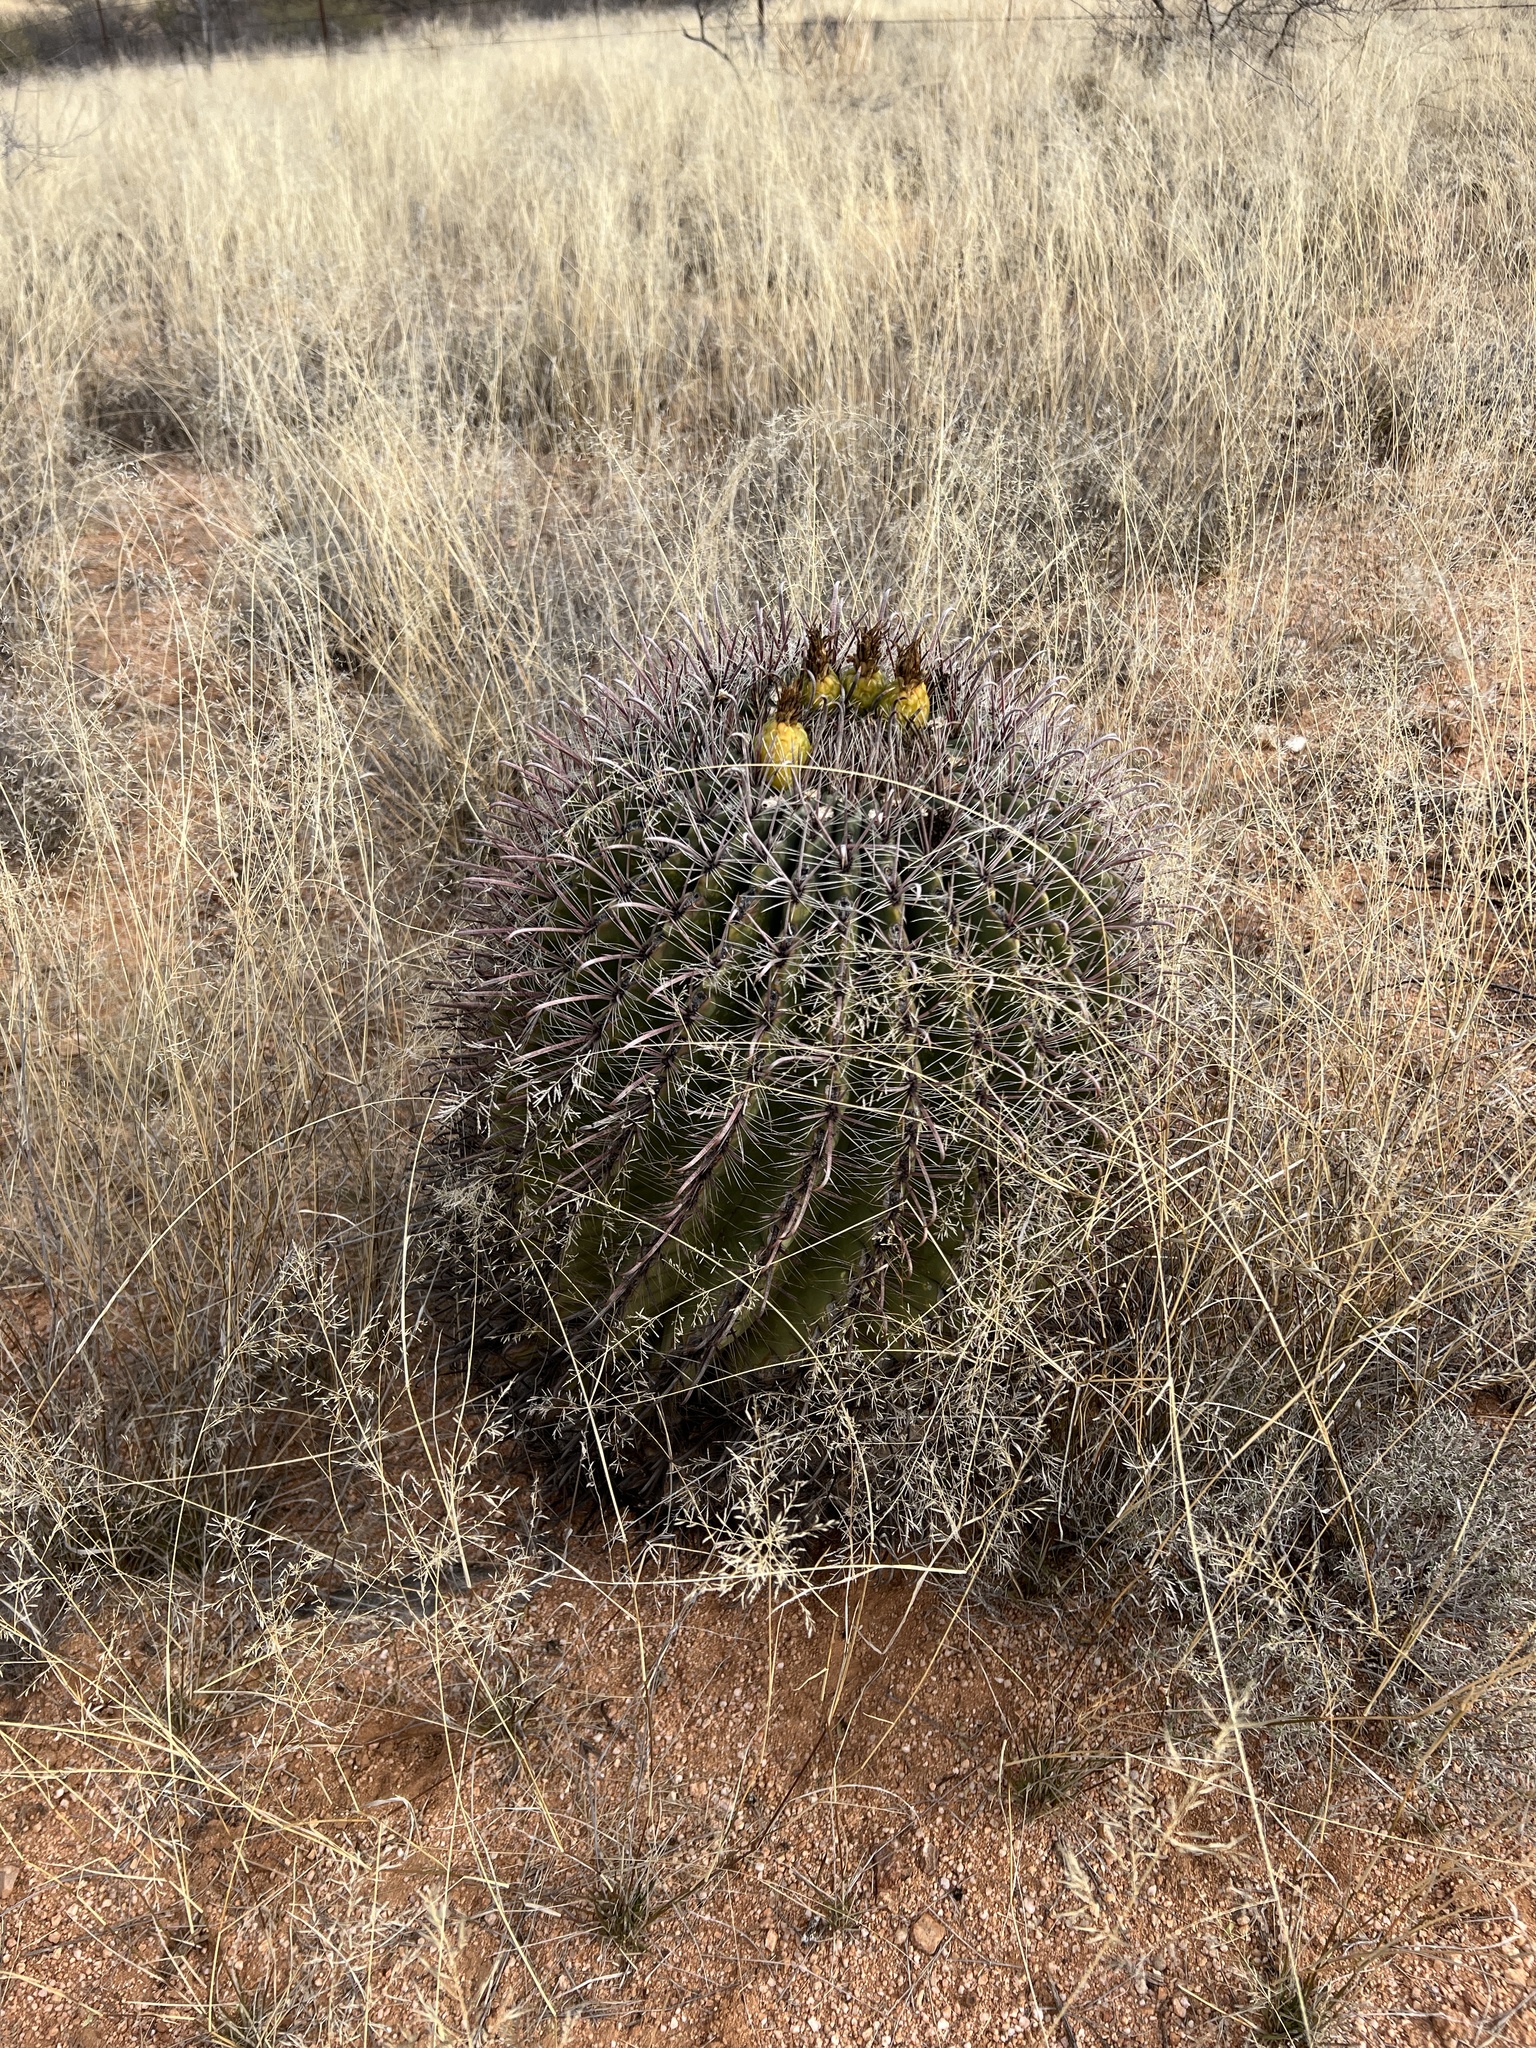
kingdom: Plantae
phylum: Tracheophyta
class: Magnoliopsida
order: Caryophyllales
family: Cactaceae
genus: Ferocactus
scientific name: Ferocactus wislizeni
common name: Candy barrel cactus
